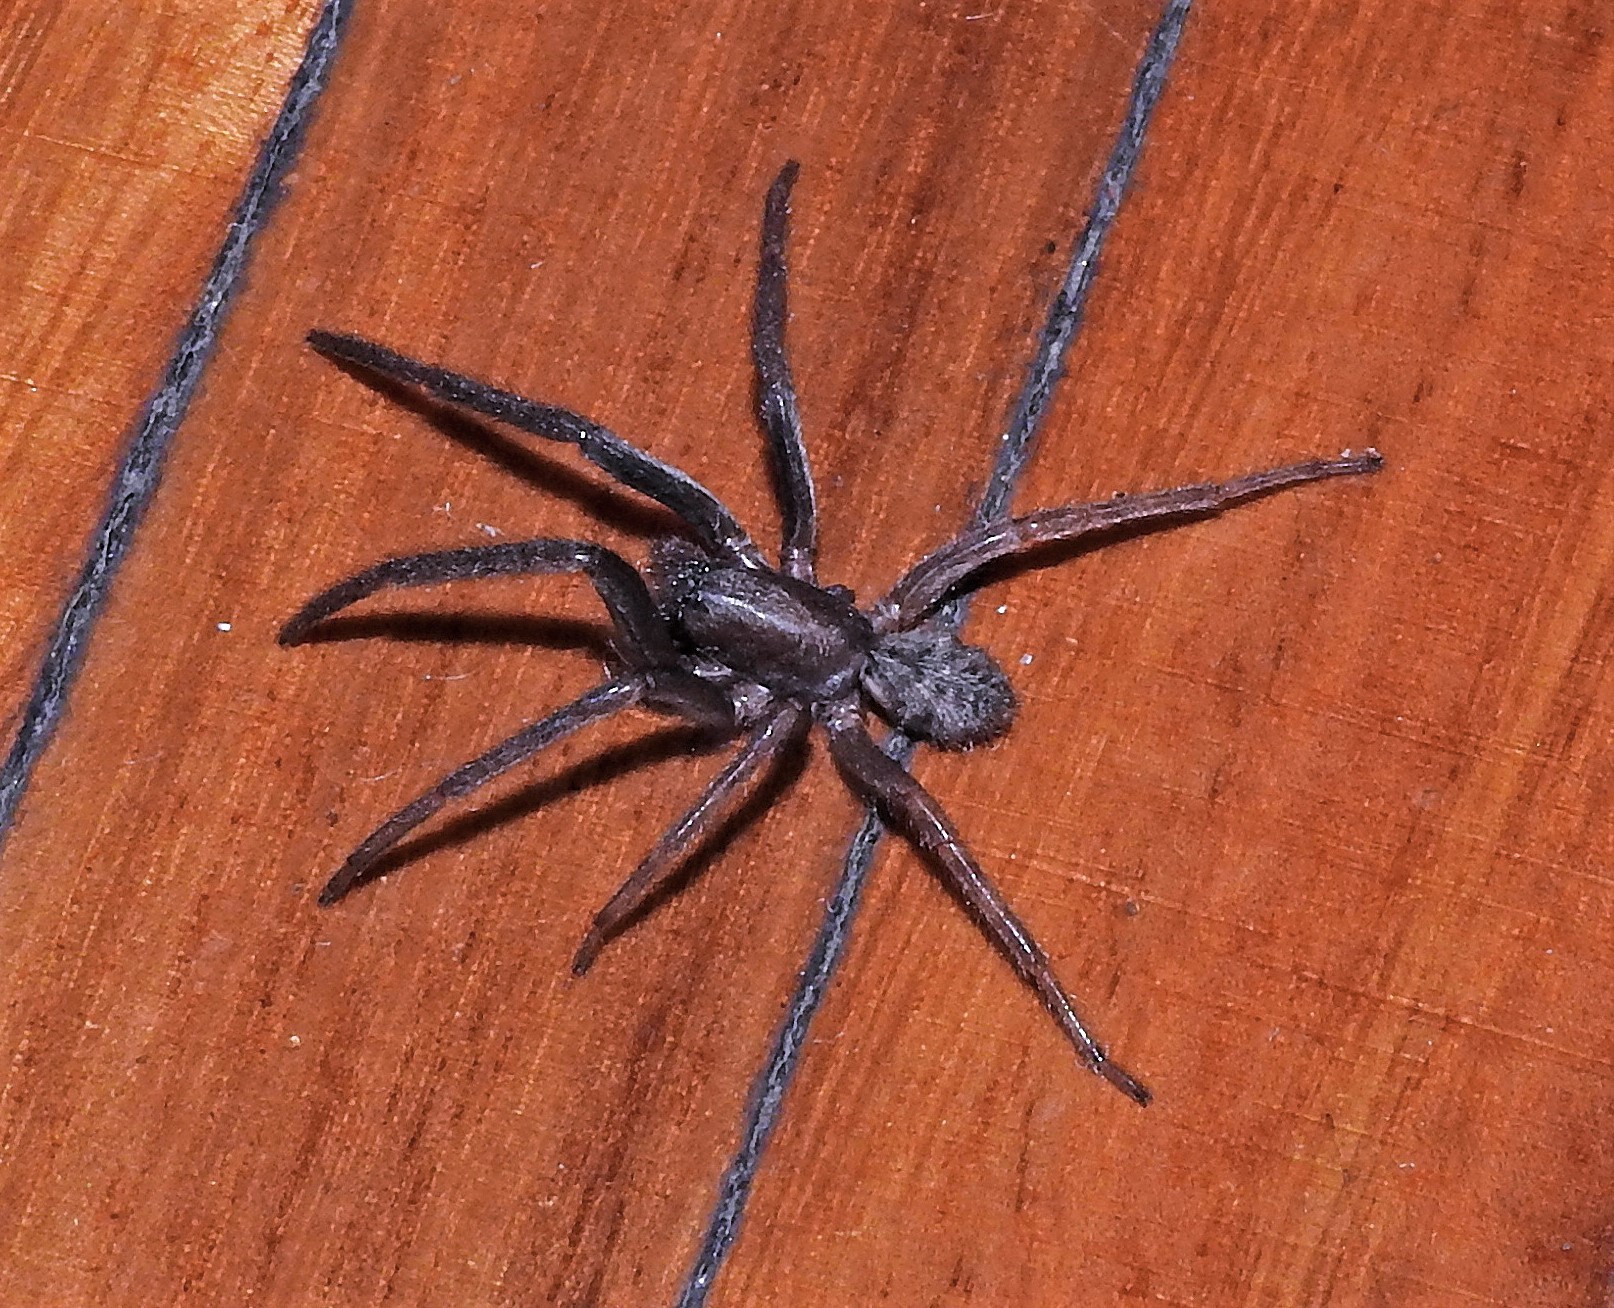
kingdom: Animalia
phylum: Arthropoda
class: Arachnida
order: Araneae
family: Segestriidae
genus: Segestria
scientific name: Segestria florentina
